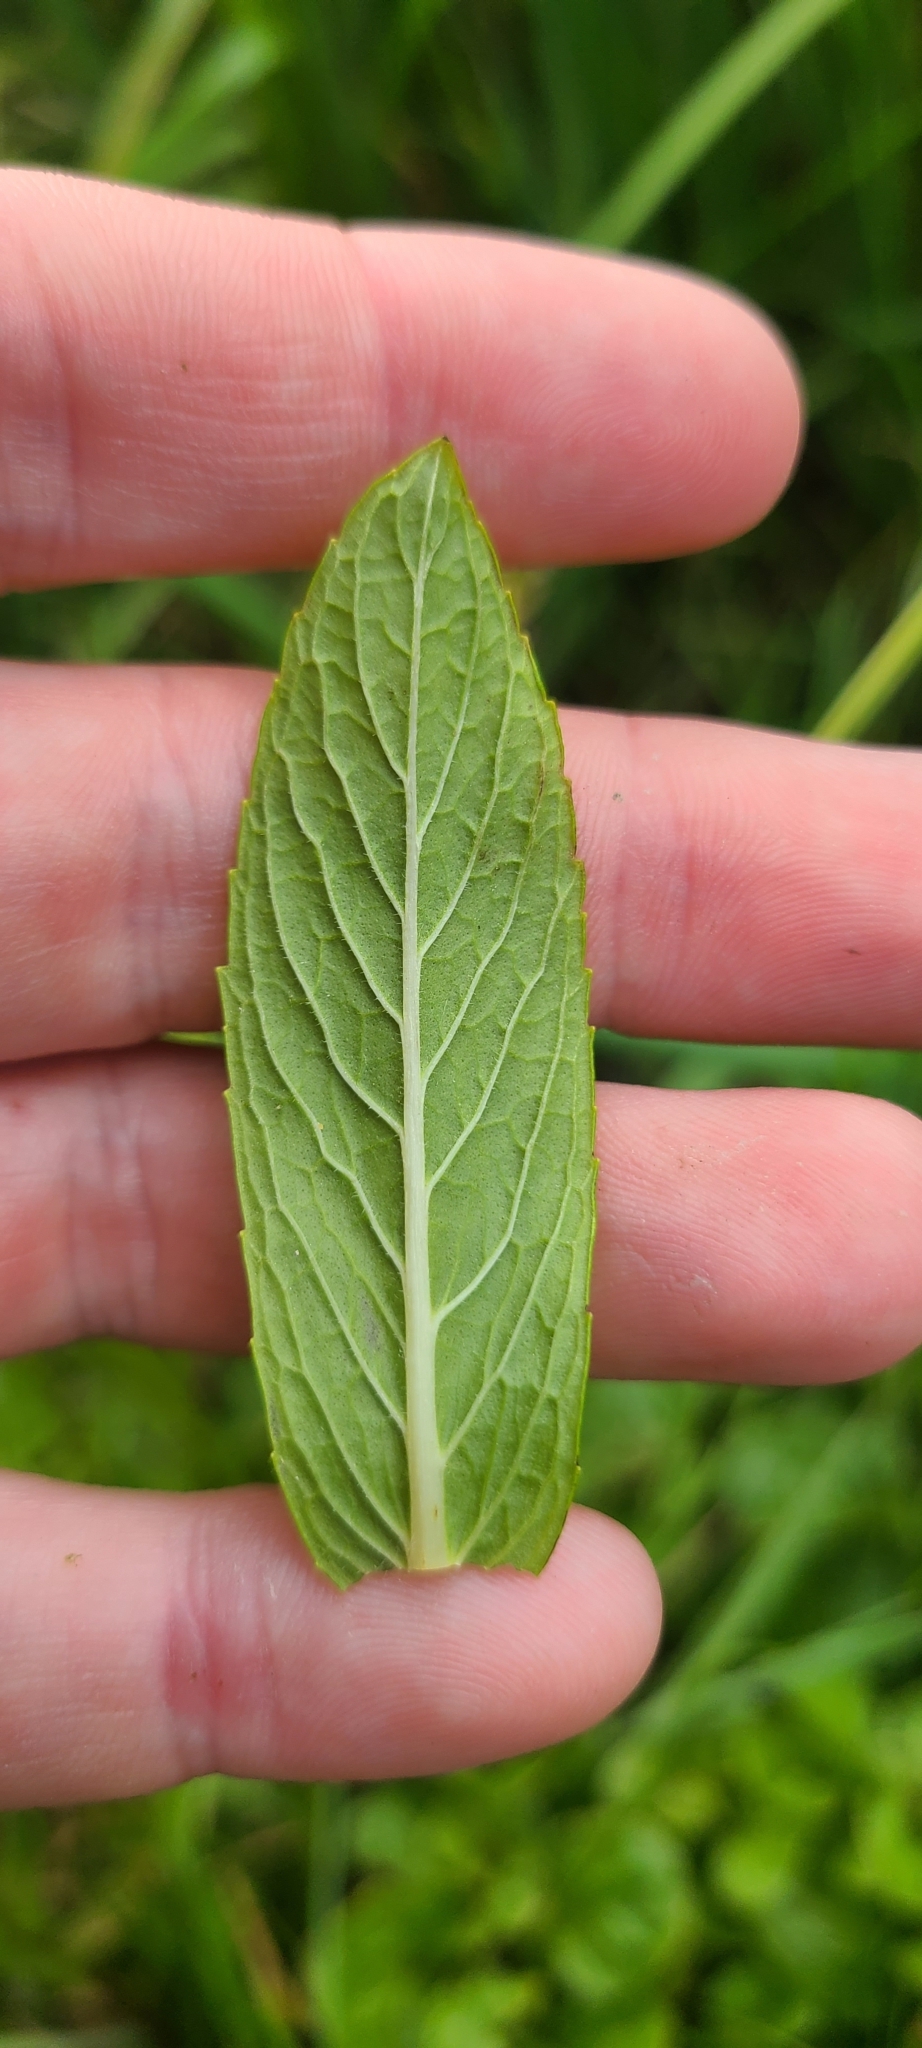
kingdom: Plantae
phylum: Tracheophyta
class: Magnoliopsida
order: Lamiales
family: Lamiaceae
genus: Mentha
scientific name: Mentha spicata
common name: Spearmint
